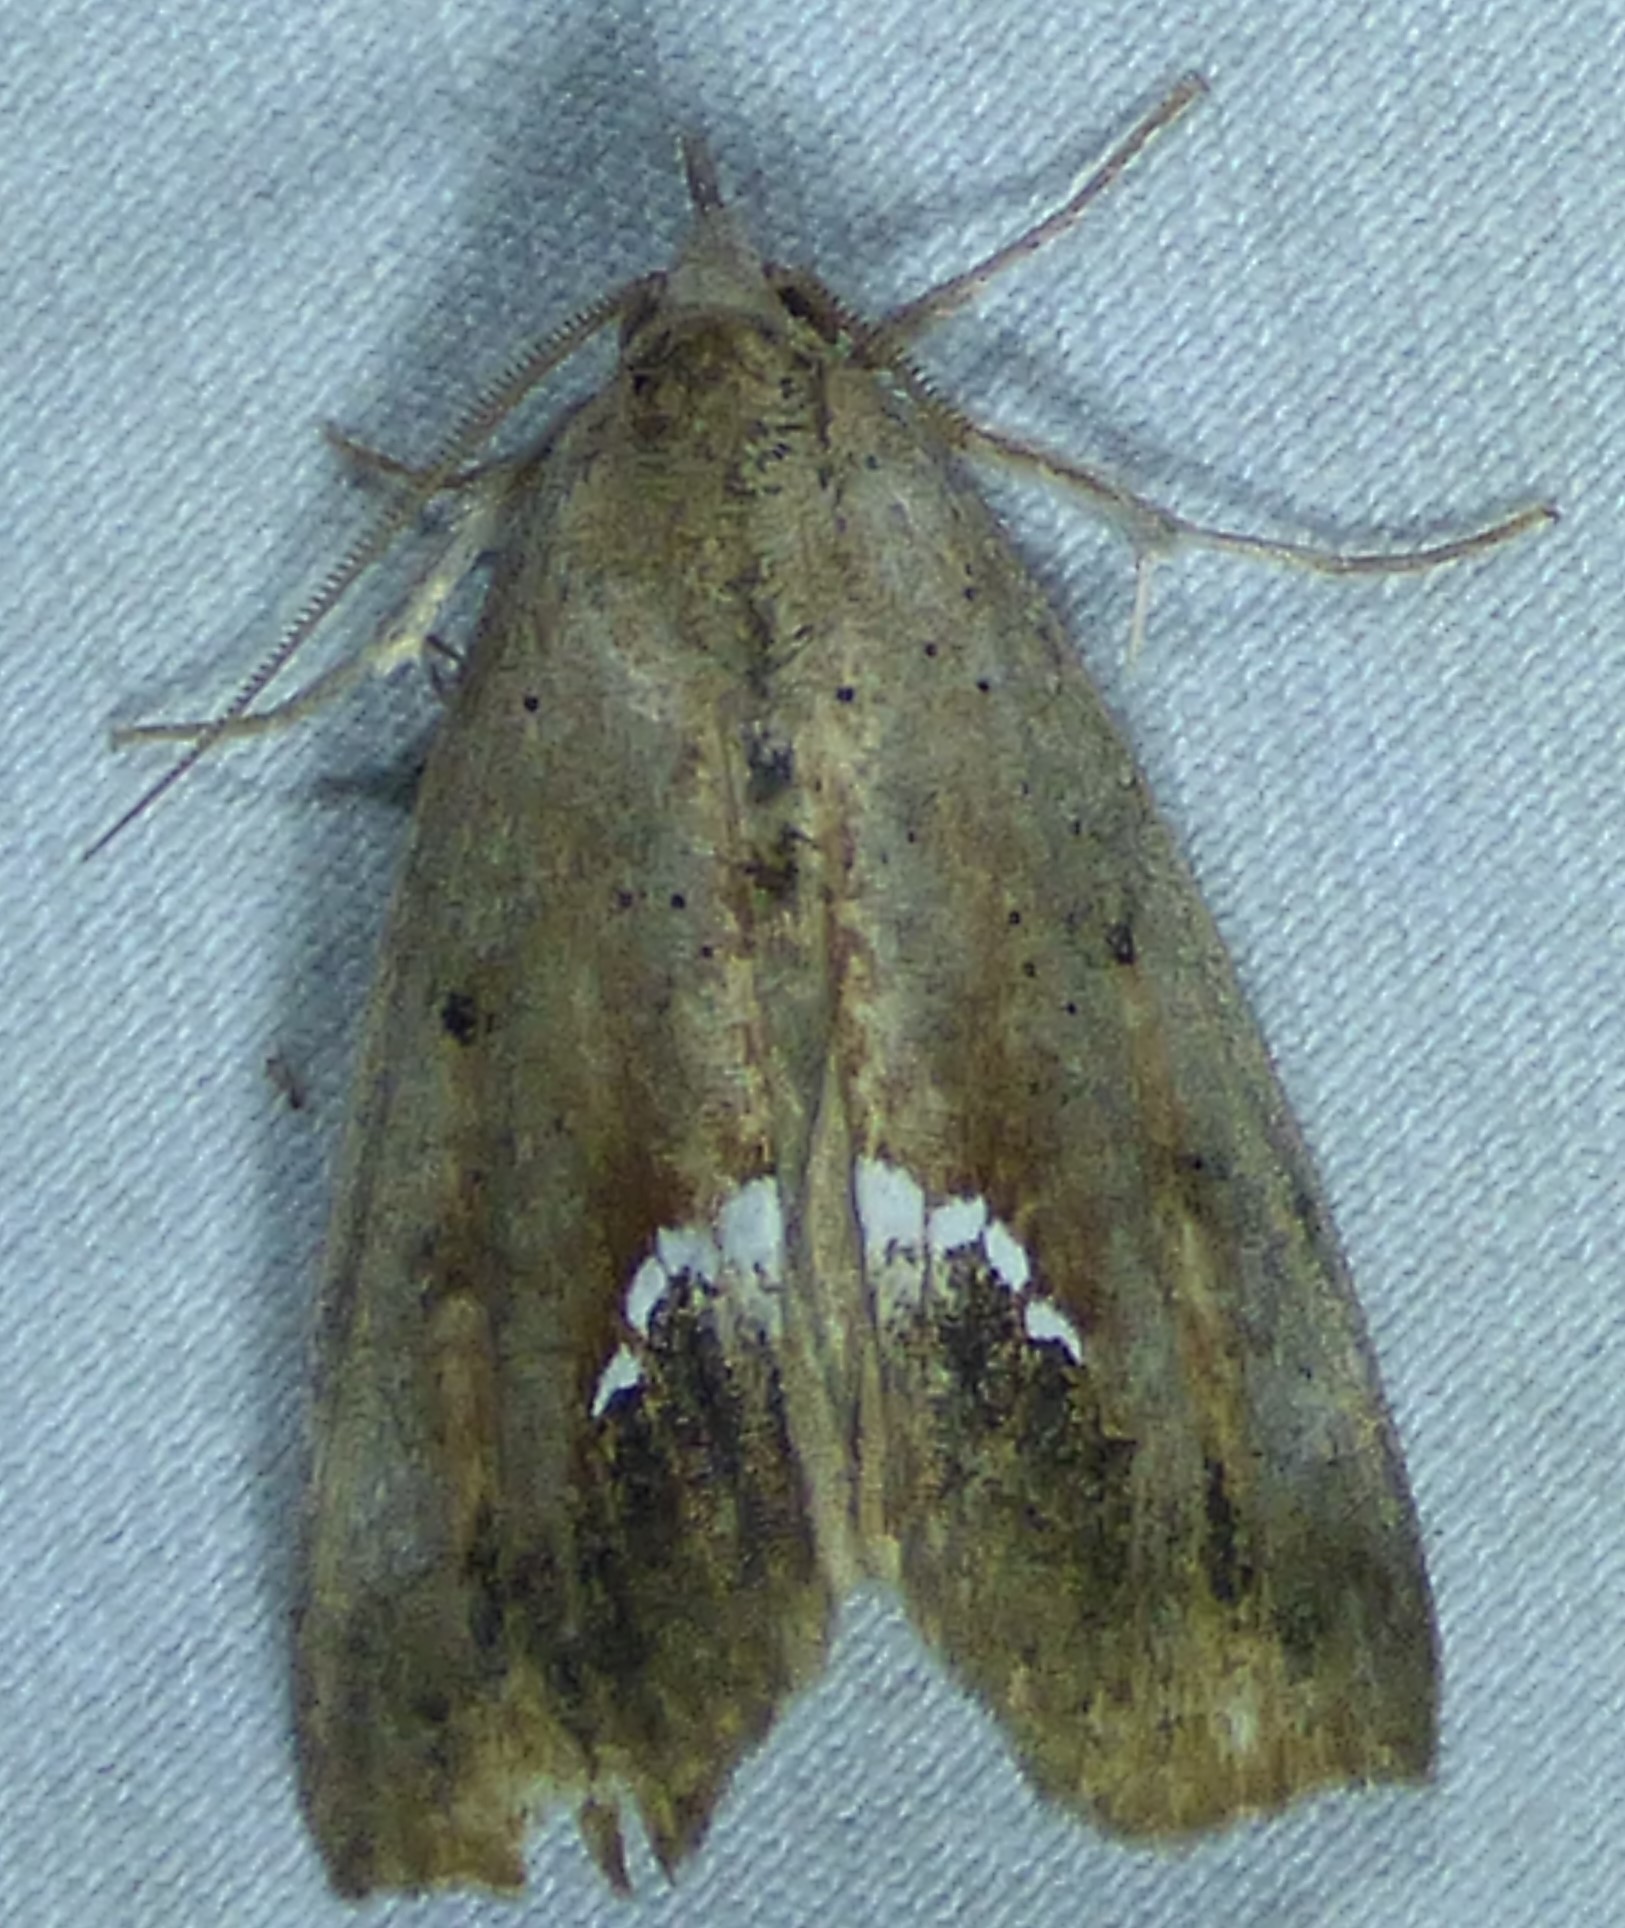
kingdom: Animalia
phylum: Arthropoda
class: Insecta
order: Lepidoptera
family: Erebidae
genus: Hypsoropha
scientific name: Hypsoropha hormos
